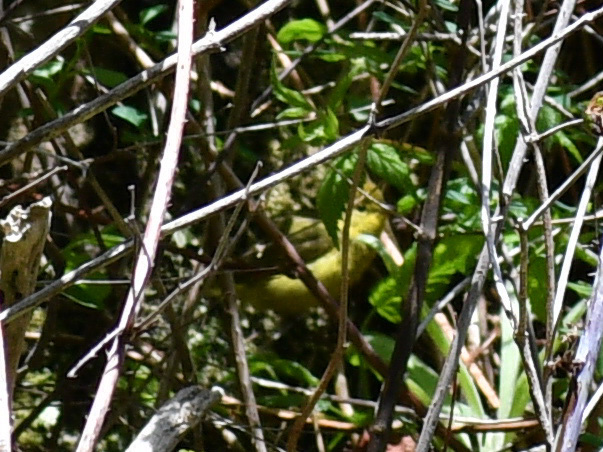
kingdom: Animalia
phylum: Chordata
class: Aves
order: Passeriformes
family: Parulidae
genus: Setophaga
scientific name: Setophaga petechia
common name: Yellow warbler
